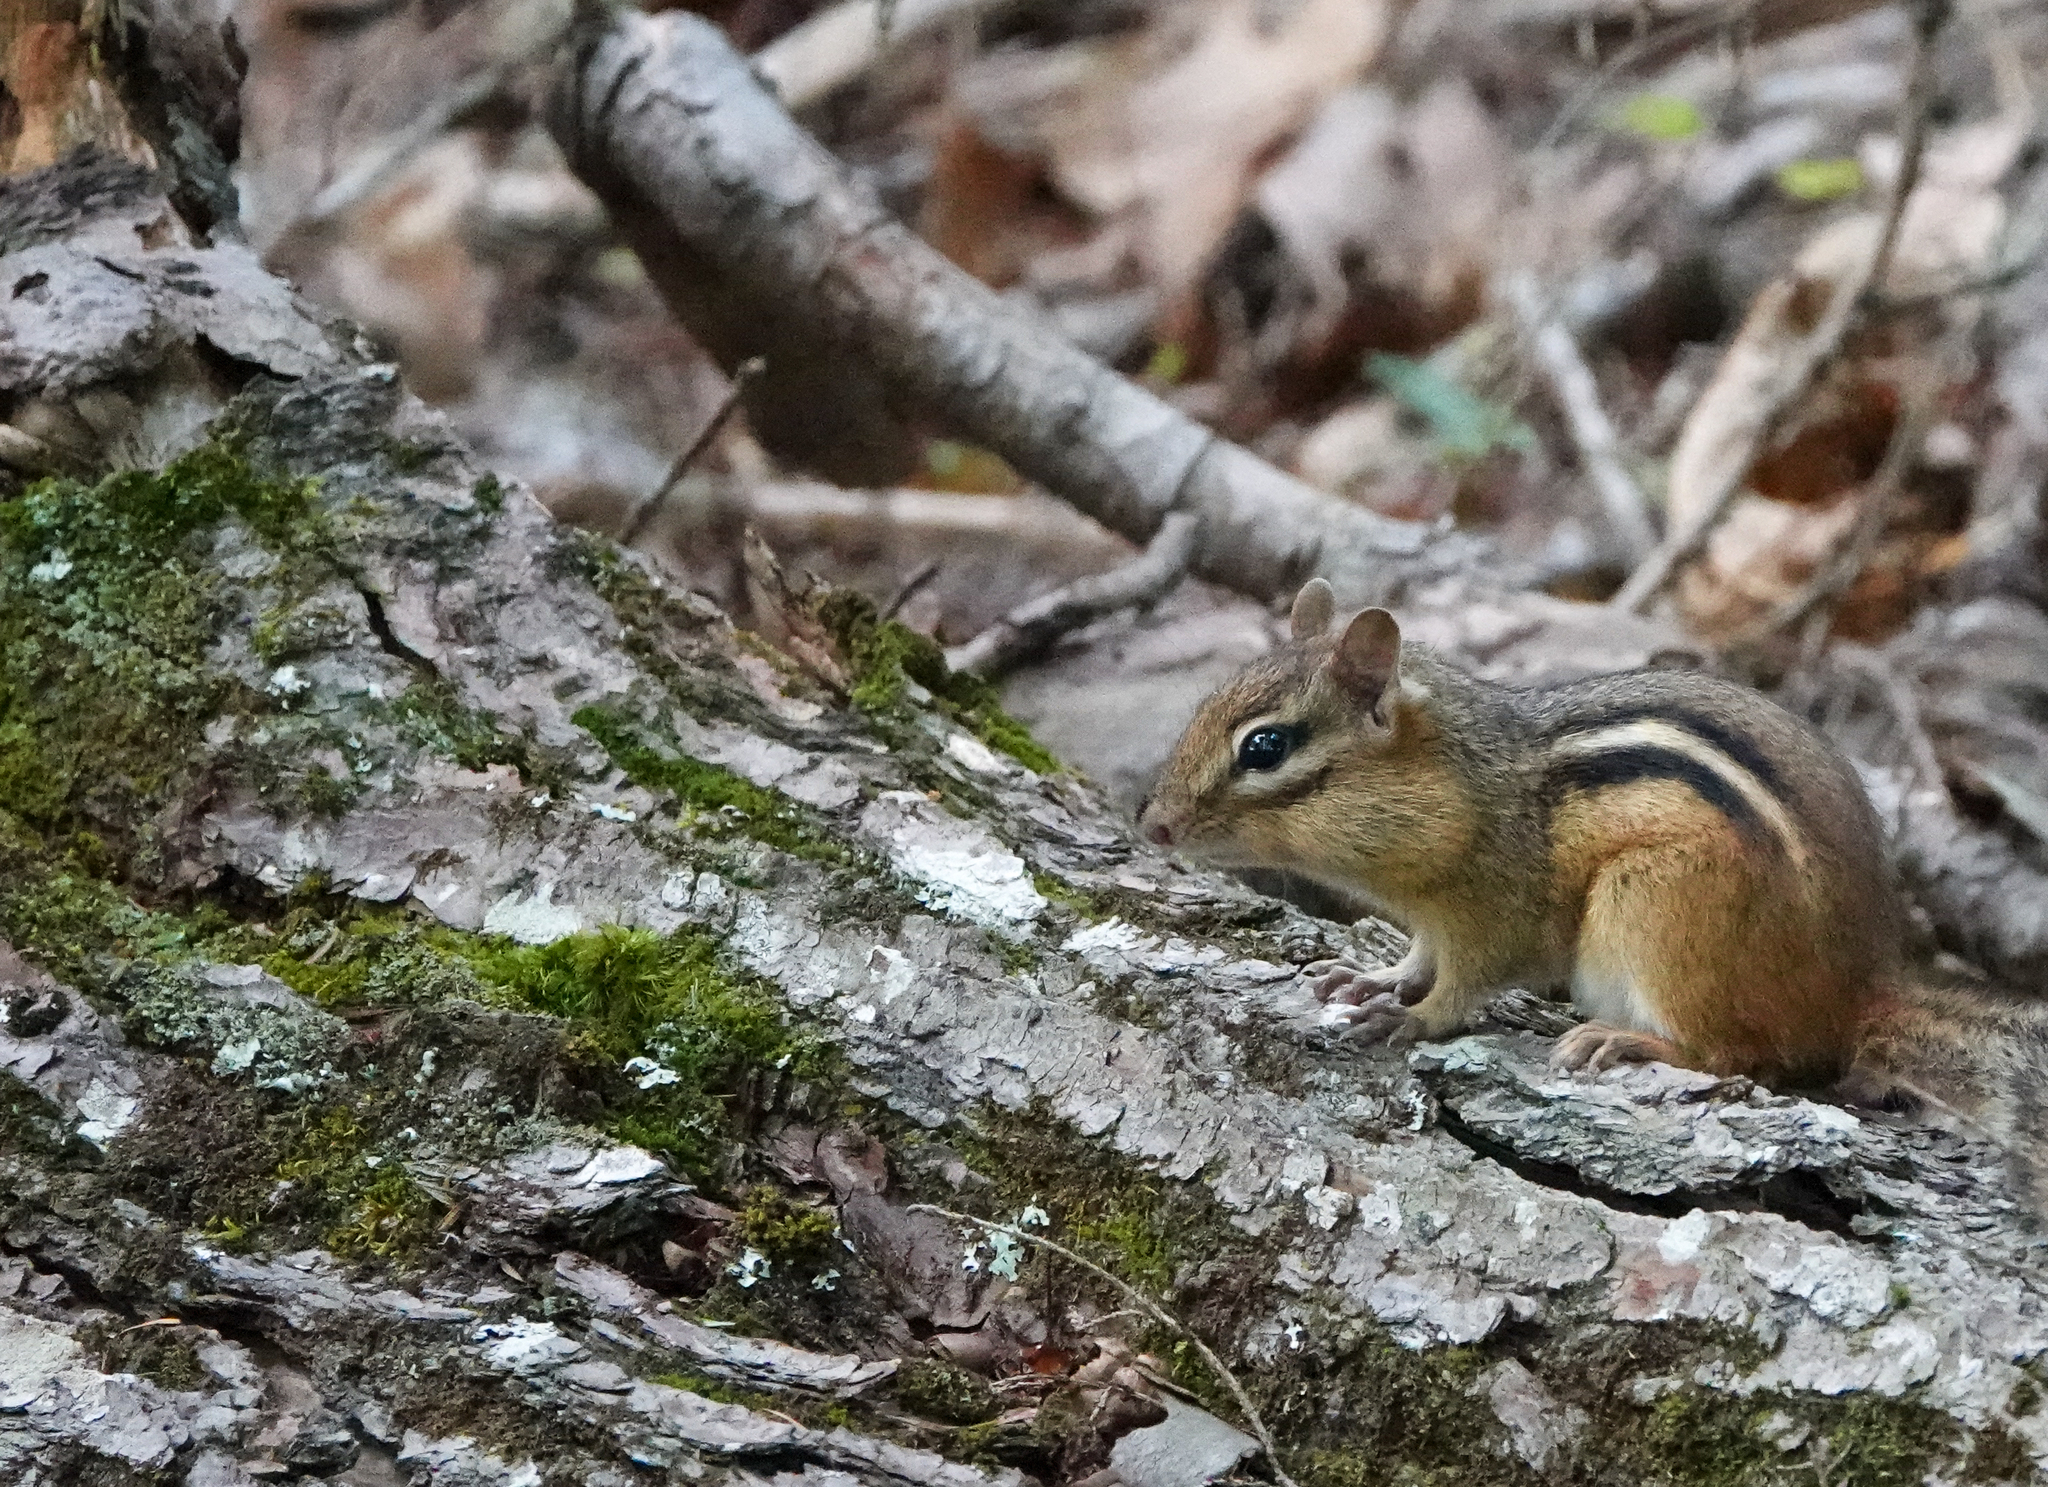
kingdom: Animalia
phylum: Chordata
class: Mammalia
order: Rodentia
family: Sciuridae
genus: Tamias
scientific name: Tamias striatus
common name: Eastern chipmunk
